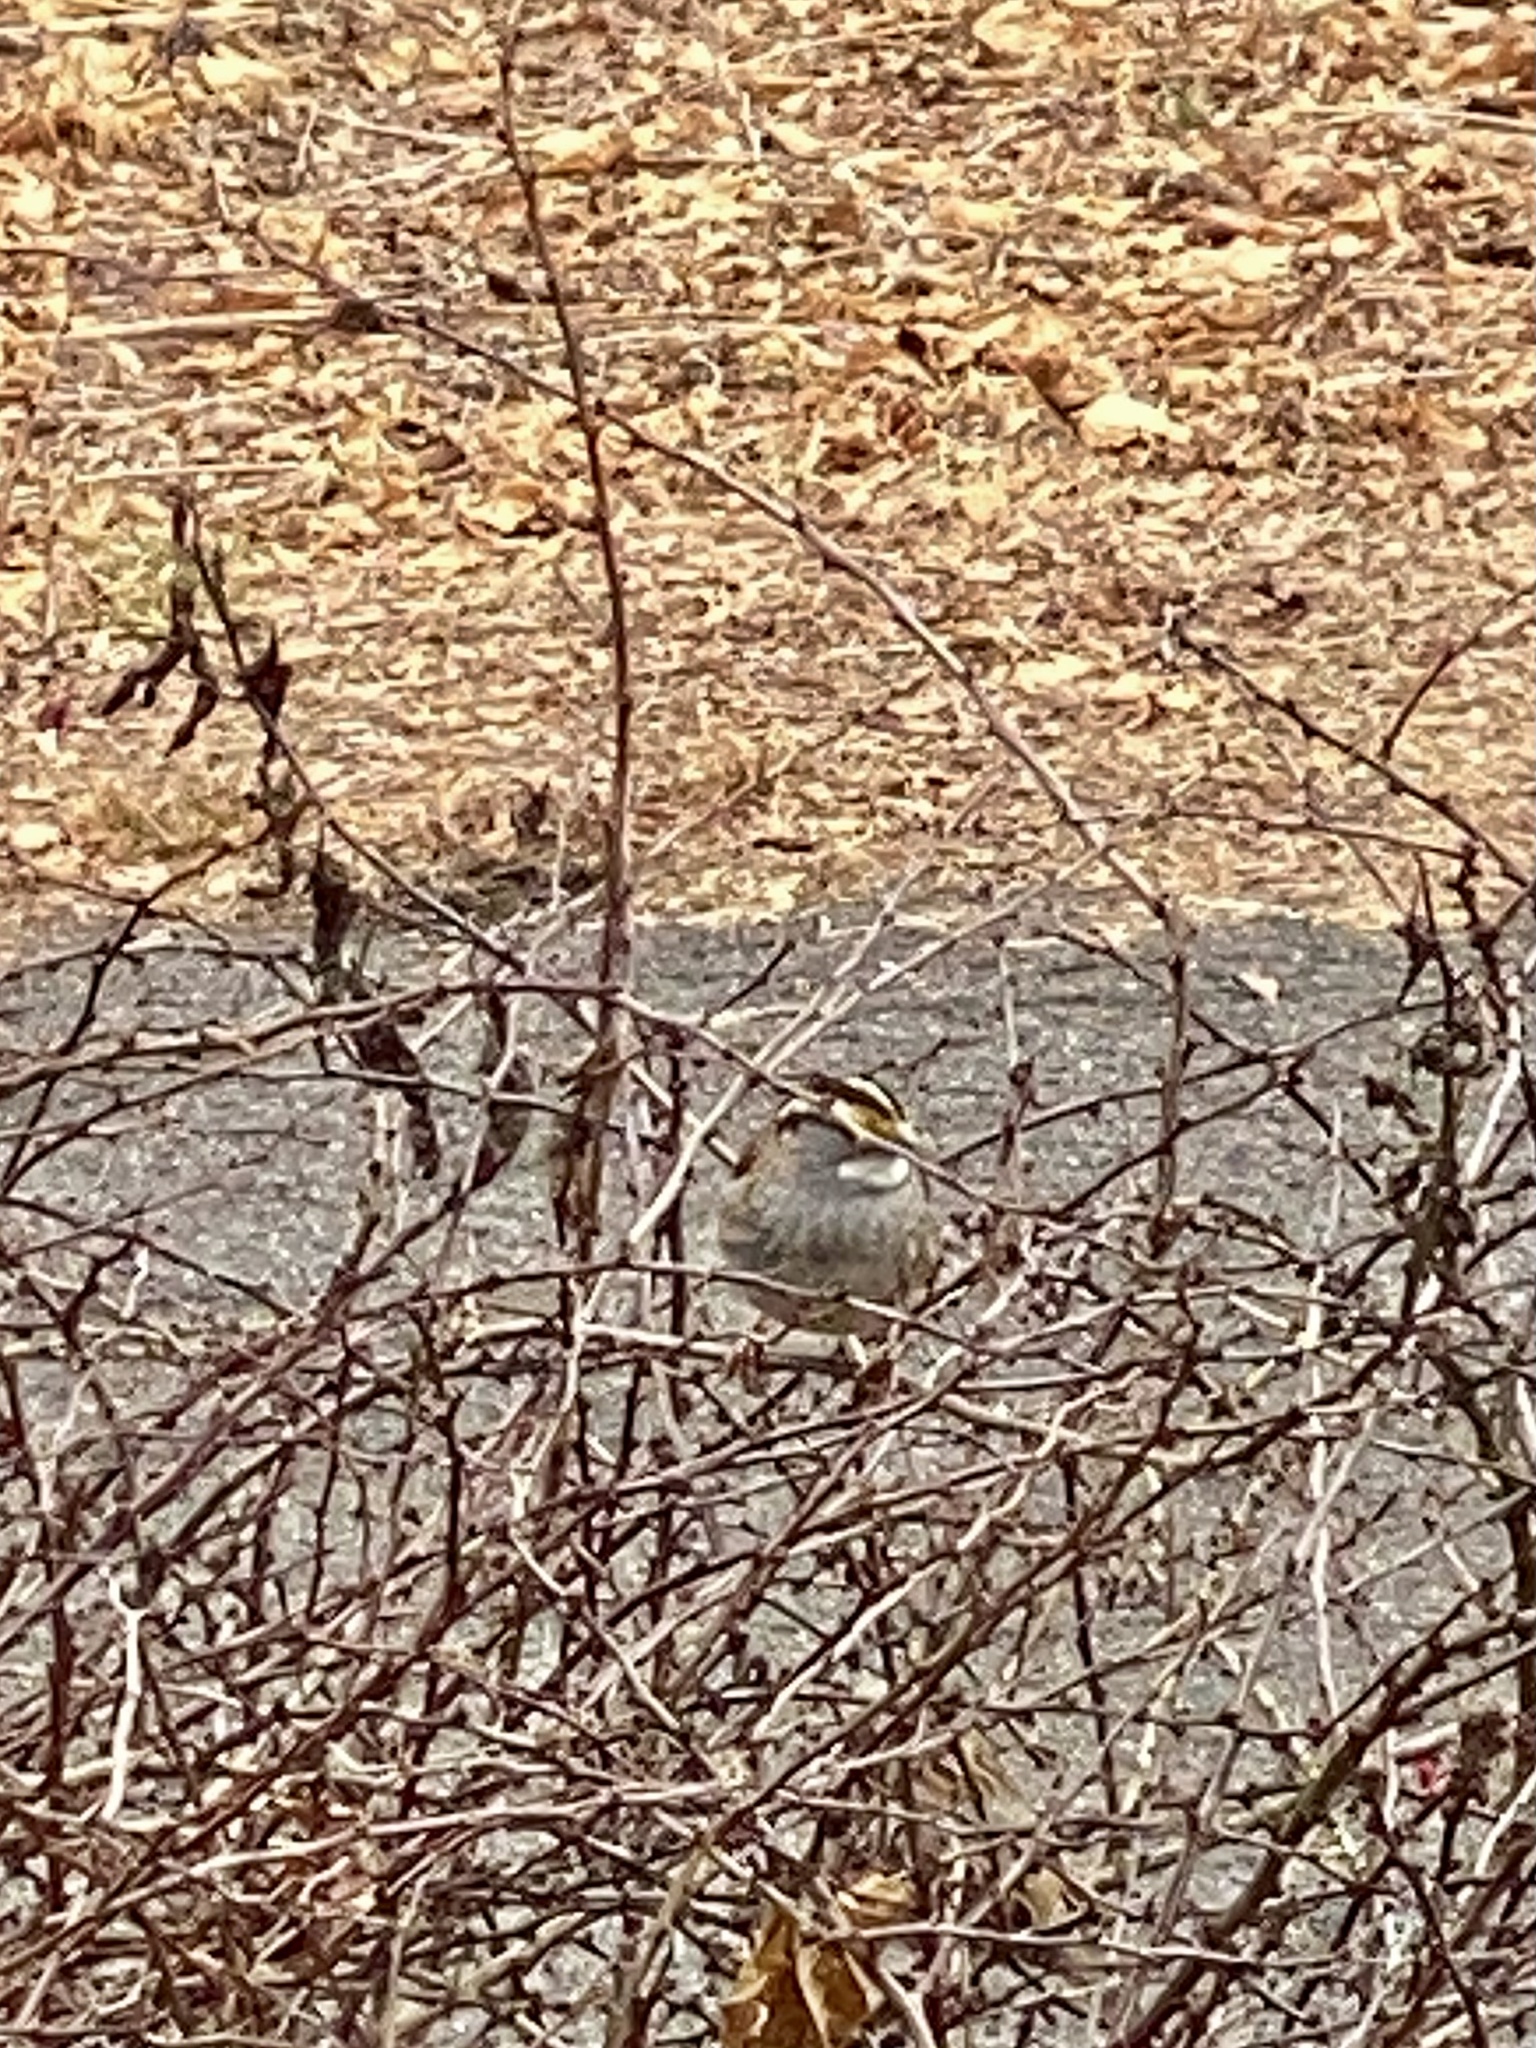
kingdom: Animalia
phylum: Chordata
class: Aves
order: Passeriformes
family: Passerellidae
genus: Zonotrichia
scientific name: Zonotrichia albicollis
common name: White-throated sparrow
